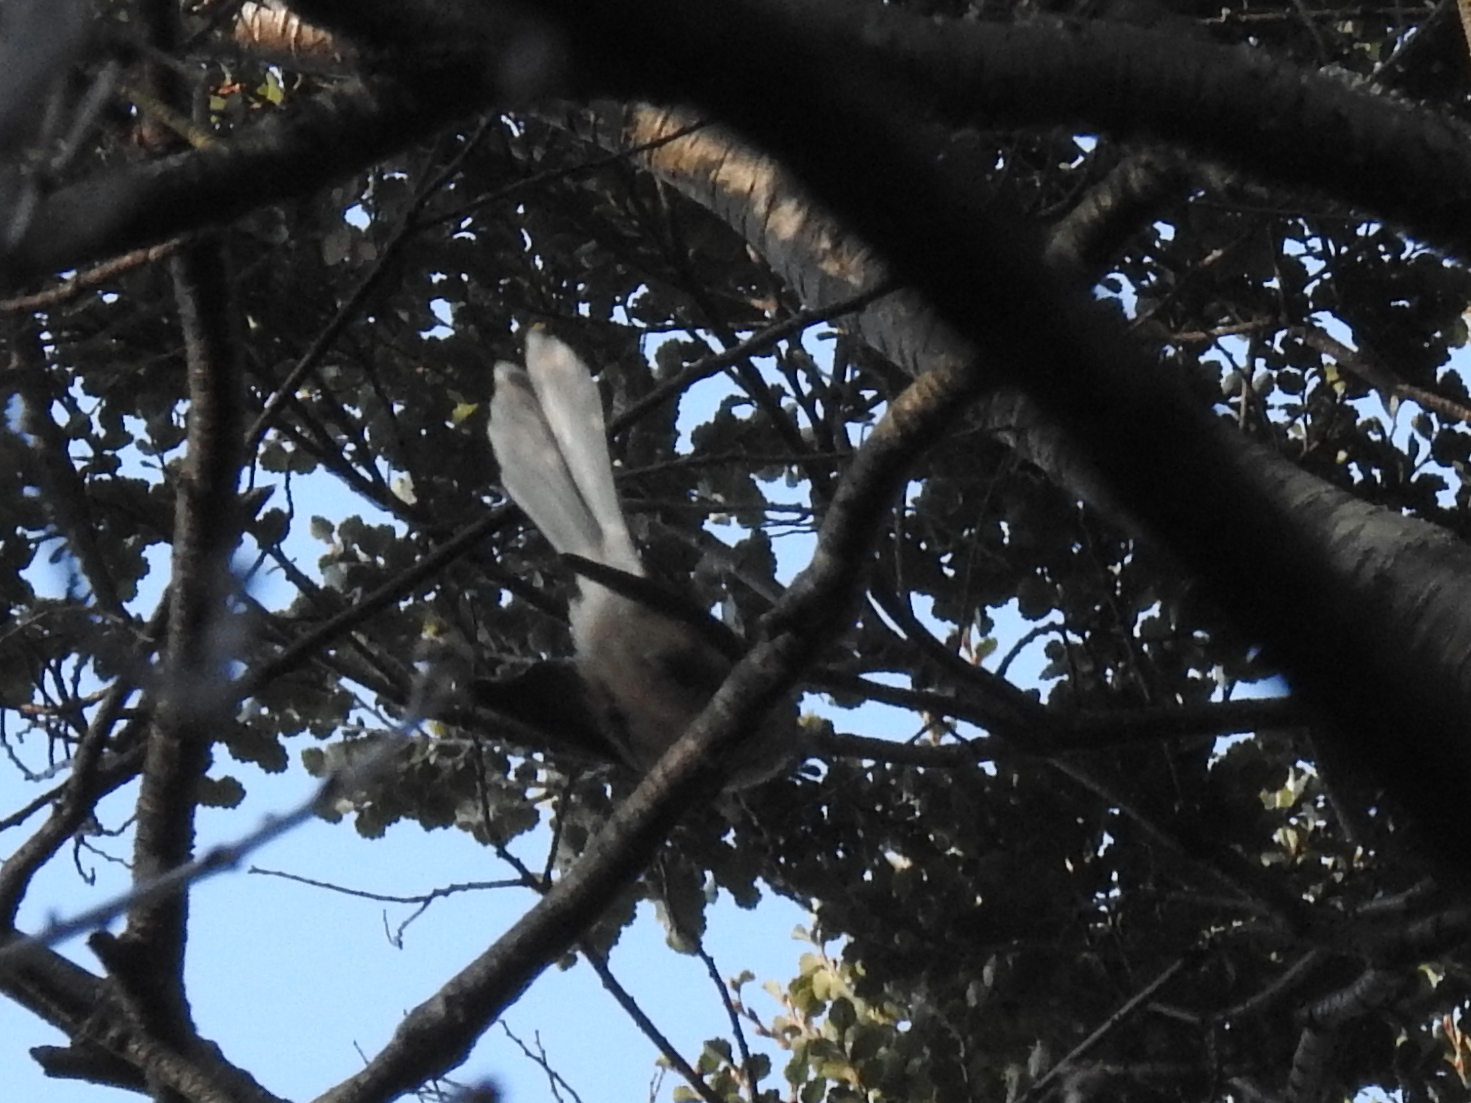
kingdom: Animalia
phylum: Chordata
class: Aves
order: Passeriformes
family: Rhipiduridae
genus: Rhipidura
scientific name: Rhipidura fuliginosa
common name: New zealand fantail
